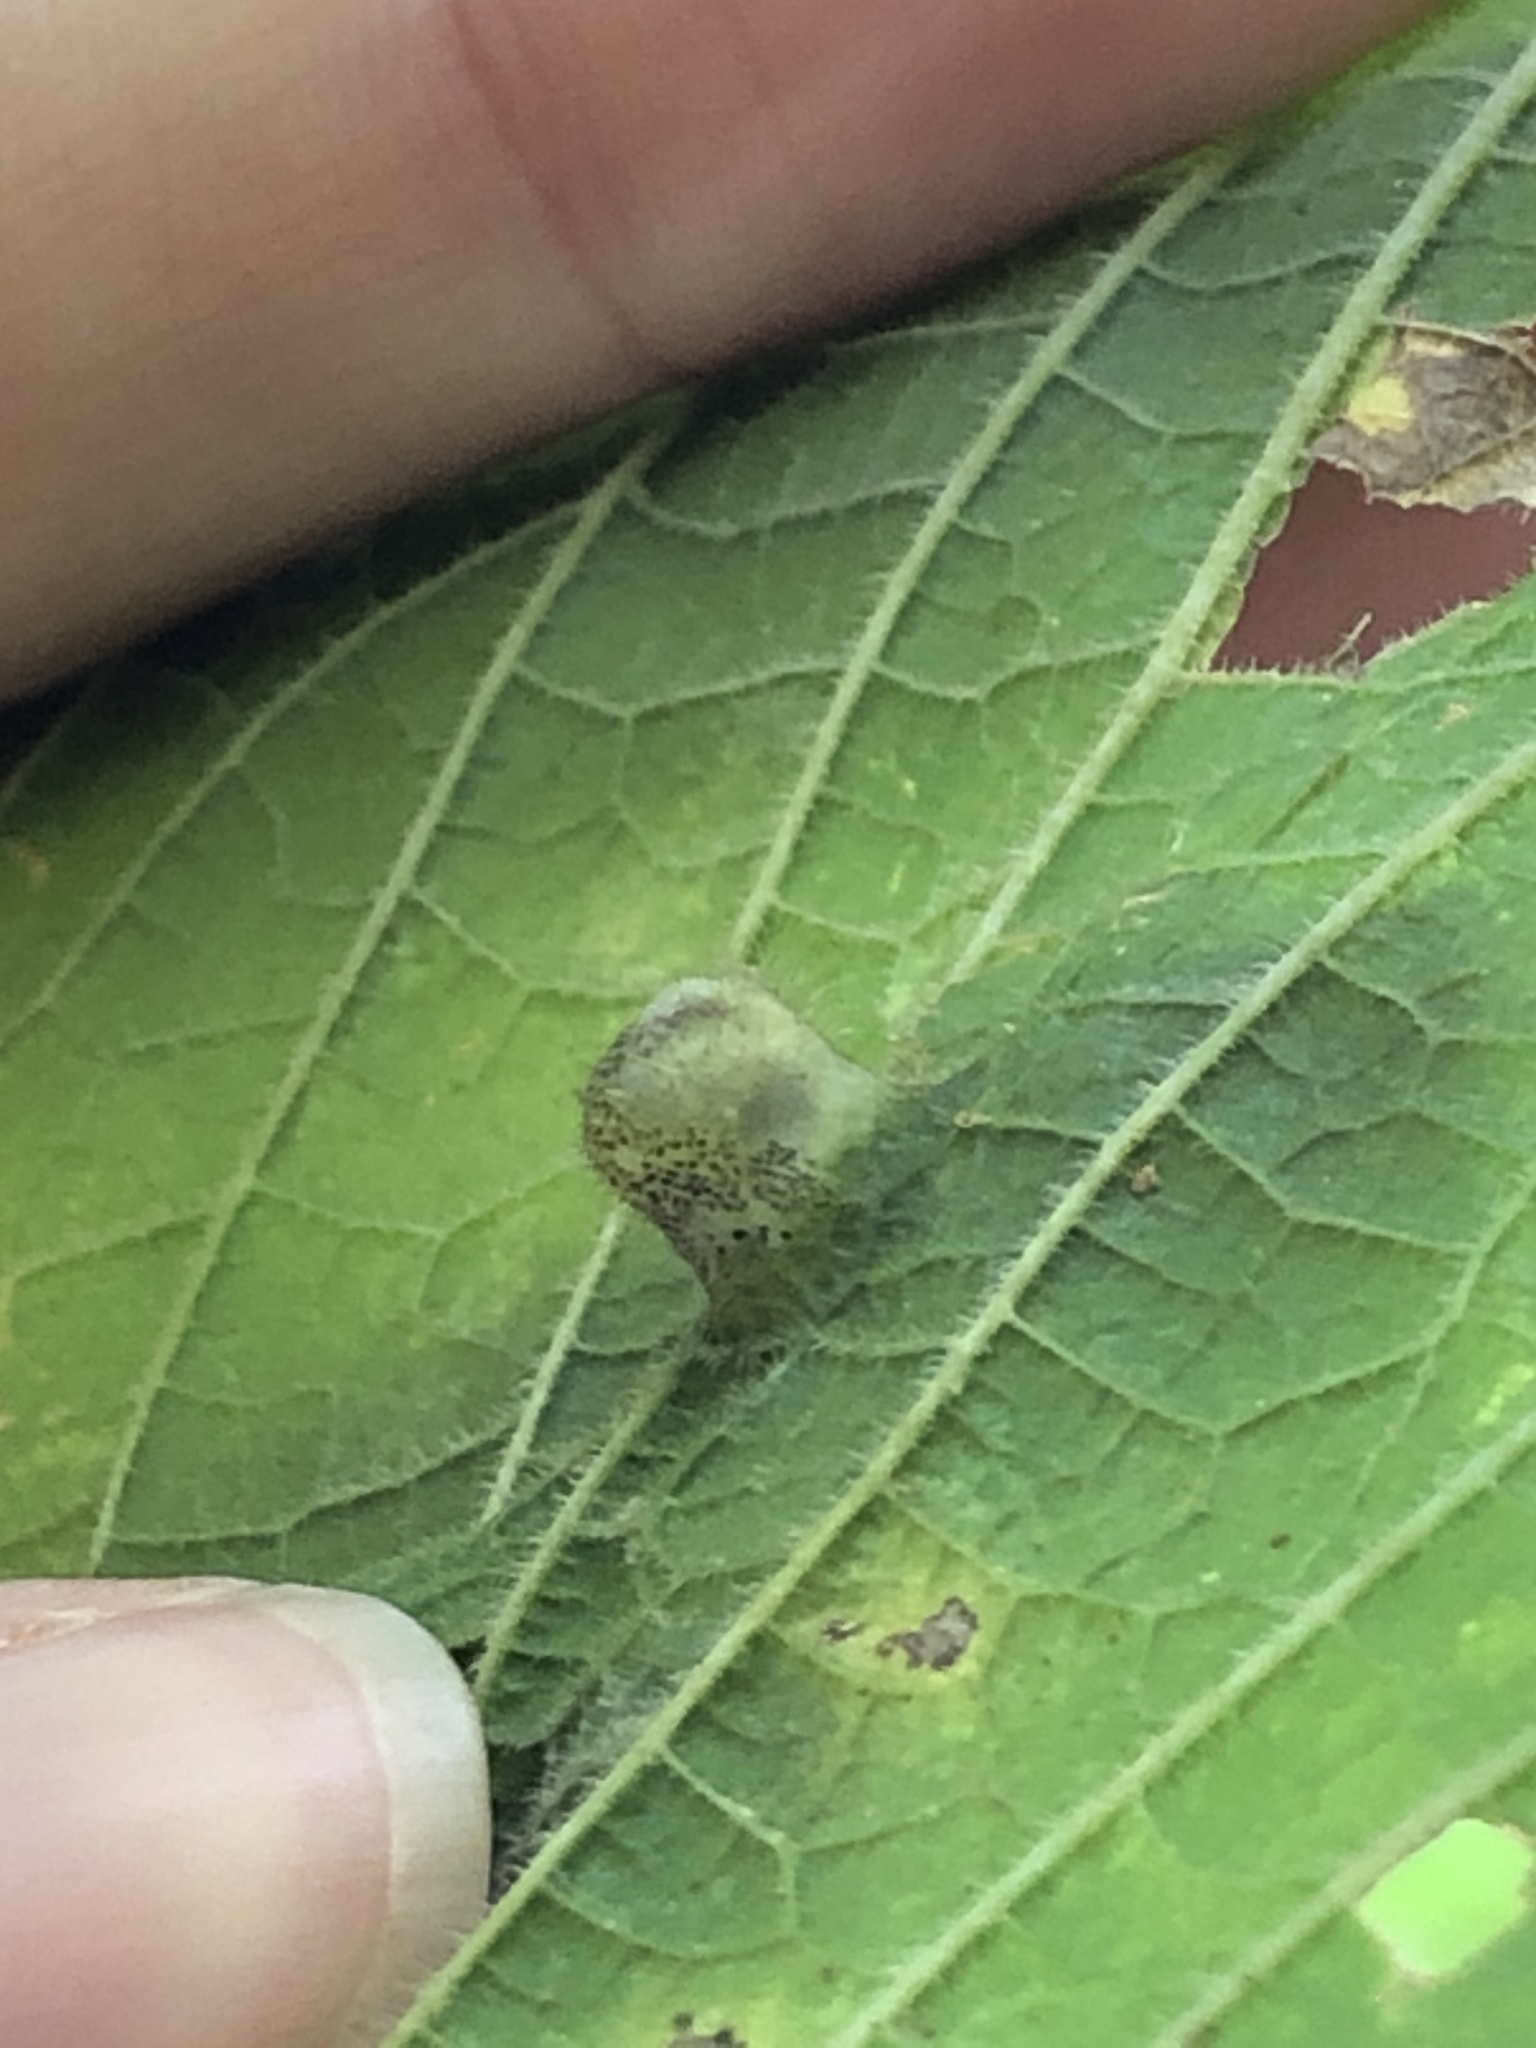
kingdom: Animalia
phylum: Arthropoda
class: Insecta
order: Hemiptera
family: Aphalaridae
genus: Pachypsylla
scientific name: Pachypsylla celtidismamma
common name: Hackberry nipplegall psyllid
